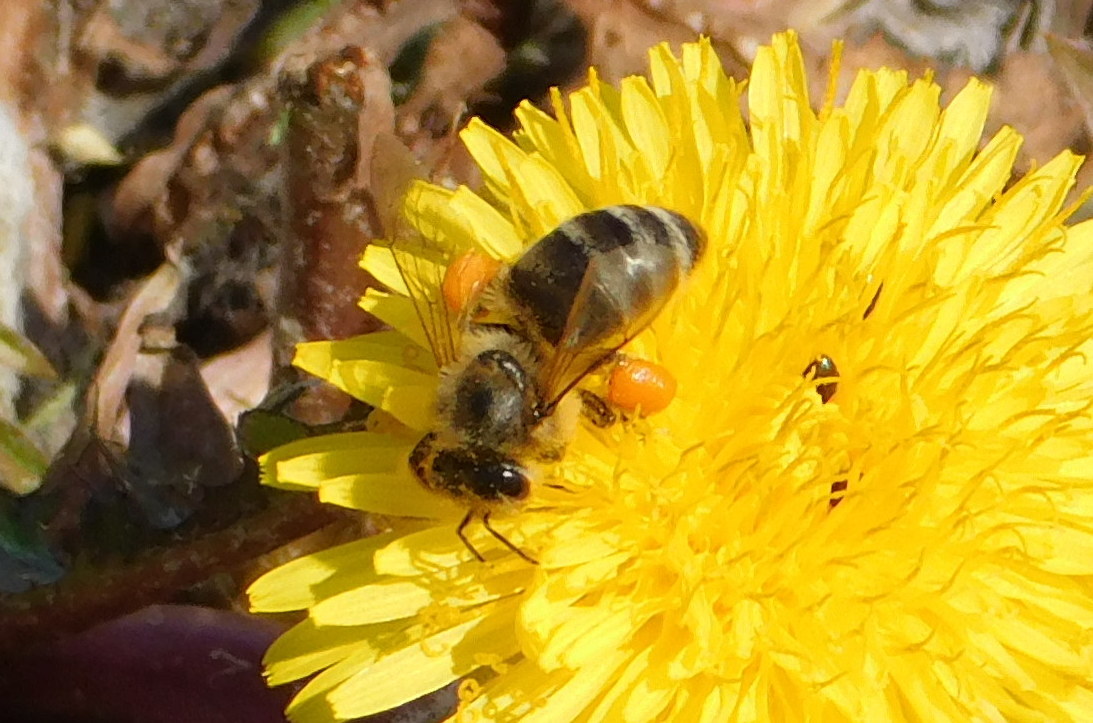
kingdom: Animalia
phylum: Arthropoda
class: Insecta
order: Hymenoptera
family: Apidae
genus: Apis
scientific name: Apis mellifera
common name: Honey bee
